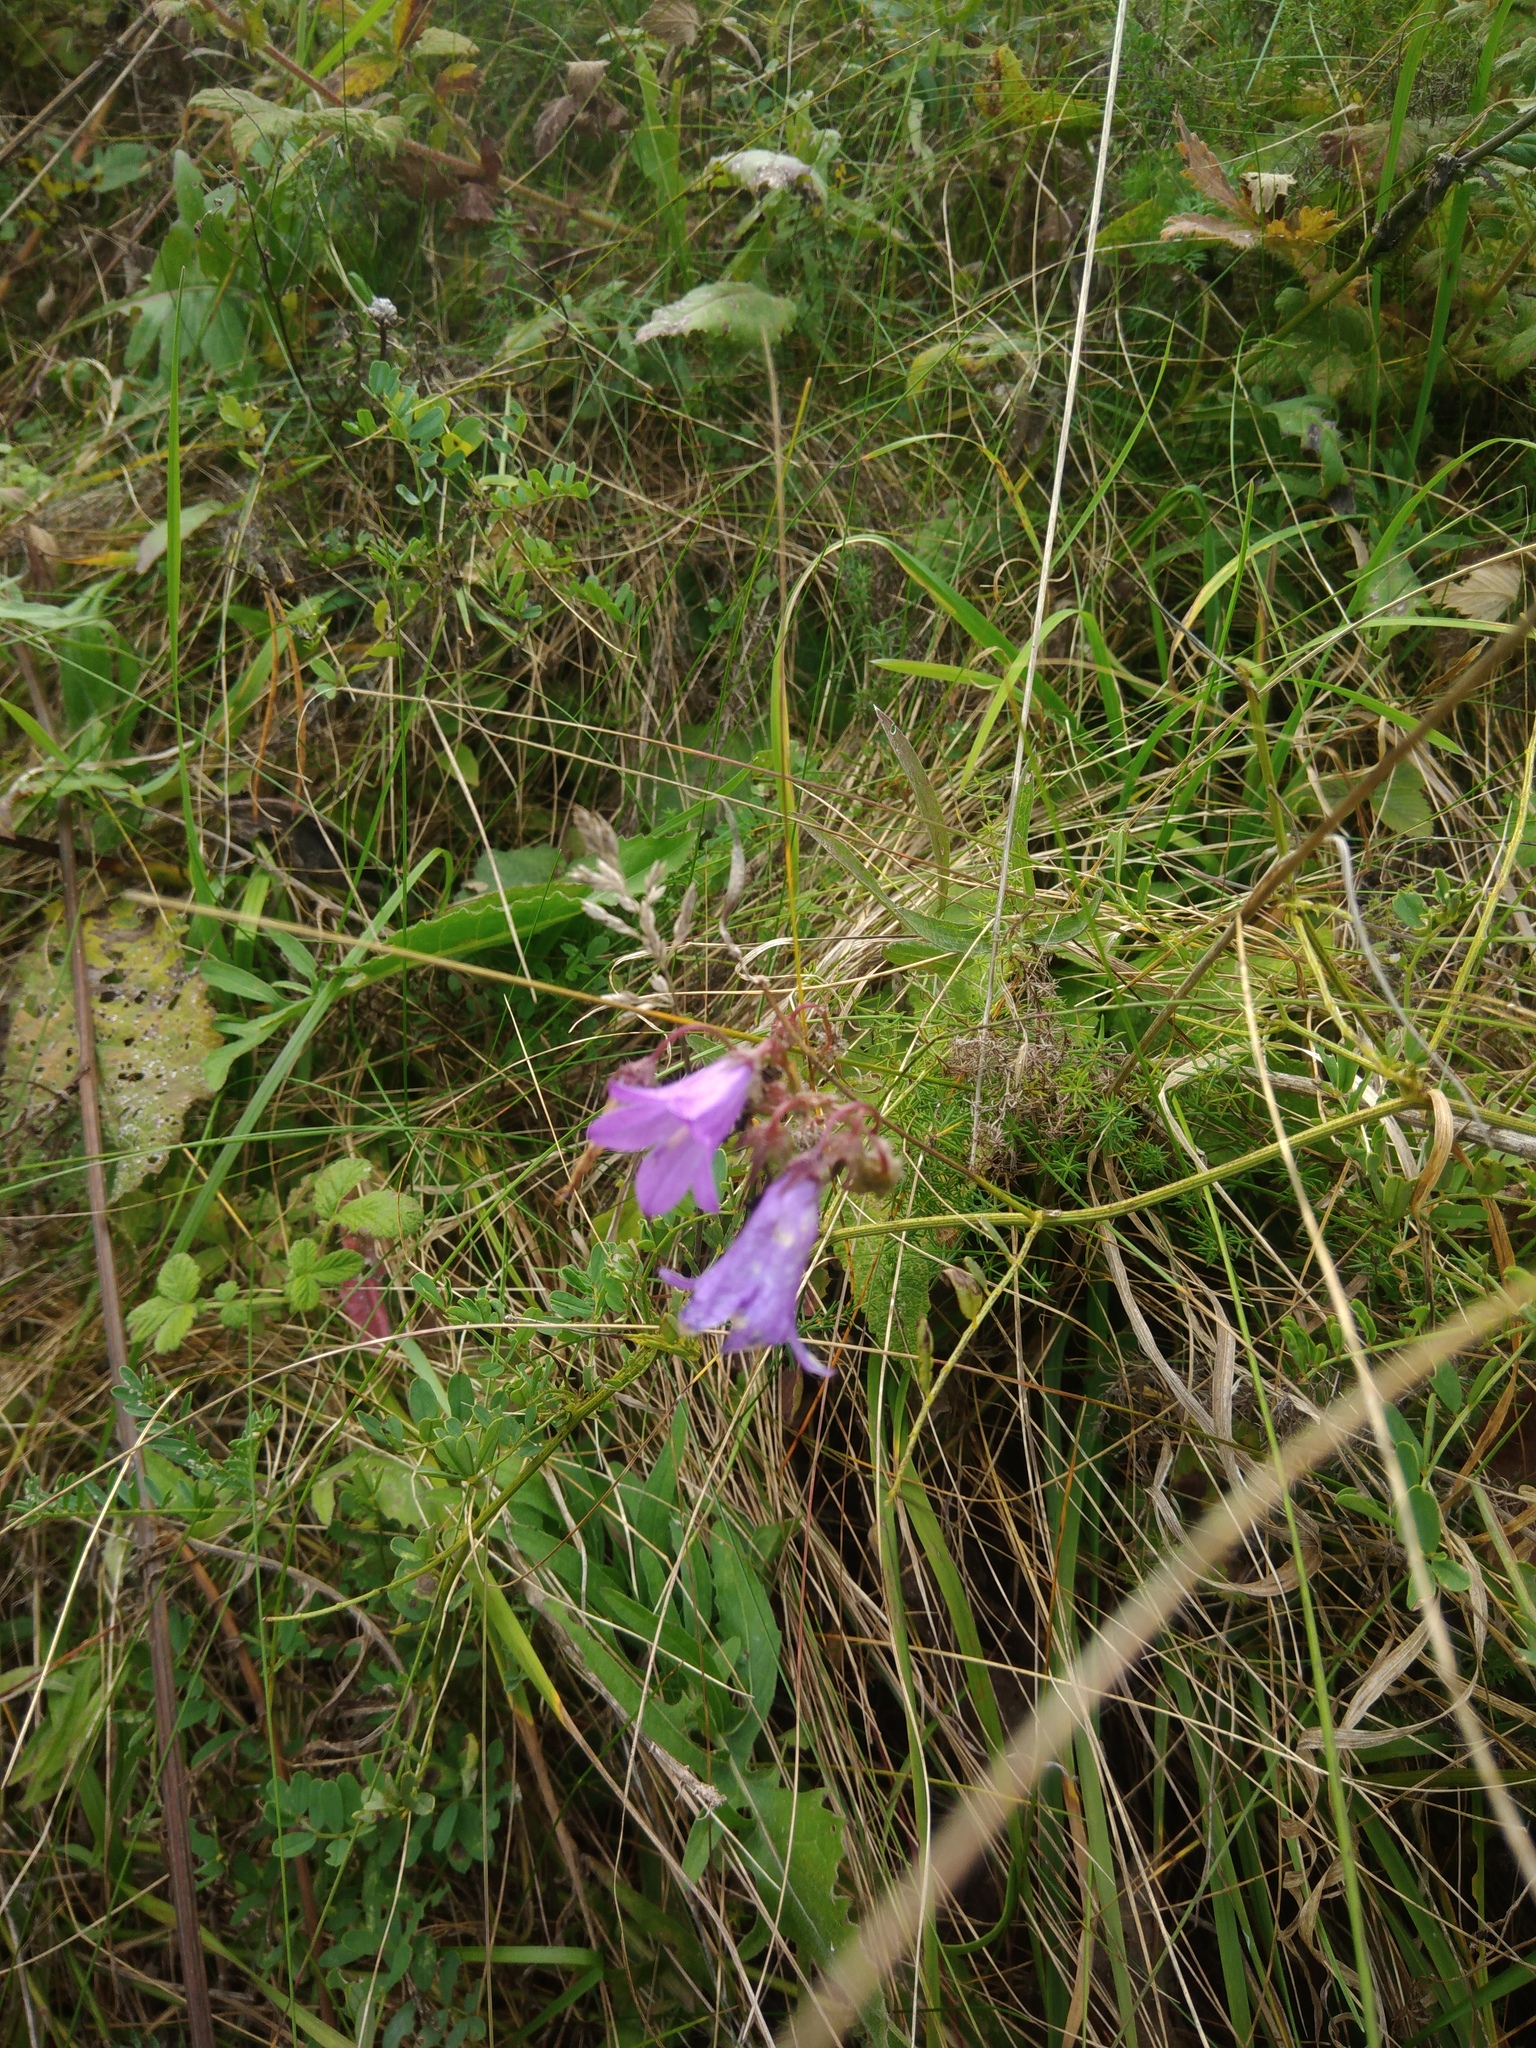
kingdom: Plantae
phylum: Tracheophyta
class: Magnoliopsida
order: Asterales
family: Campanulaceae
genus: Campanula
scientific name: Campanula sibirica
